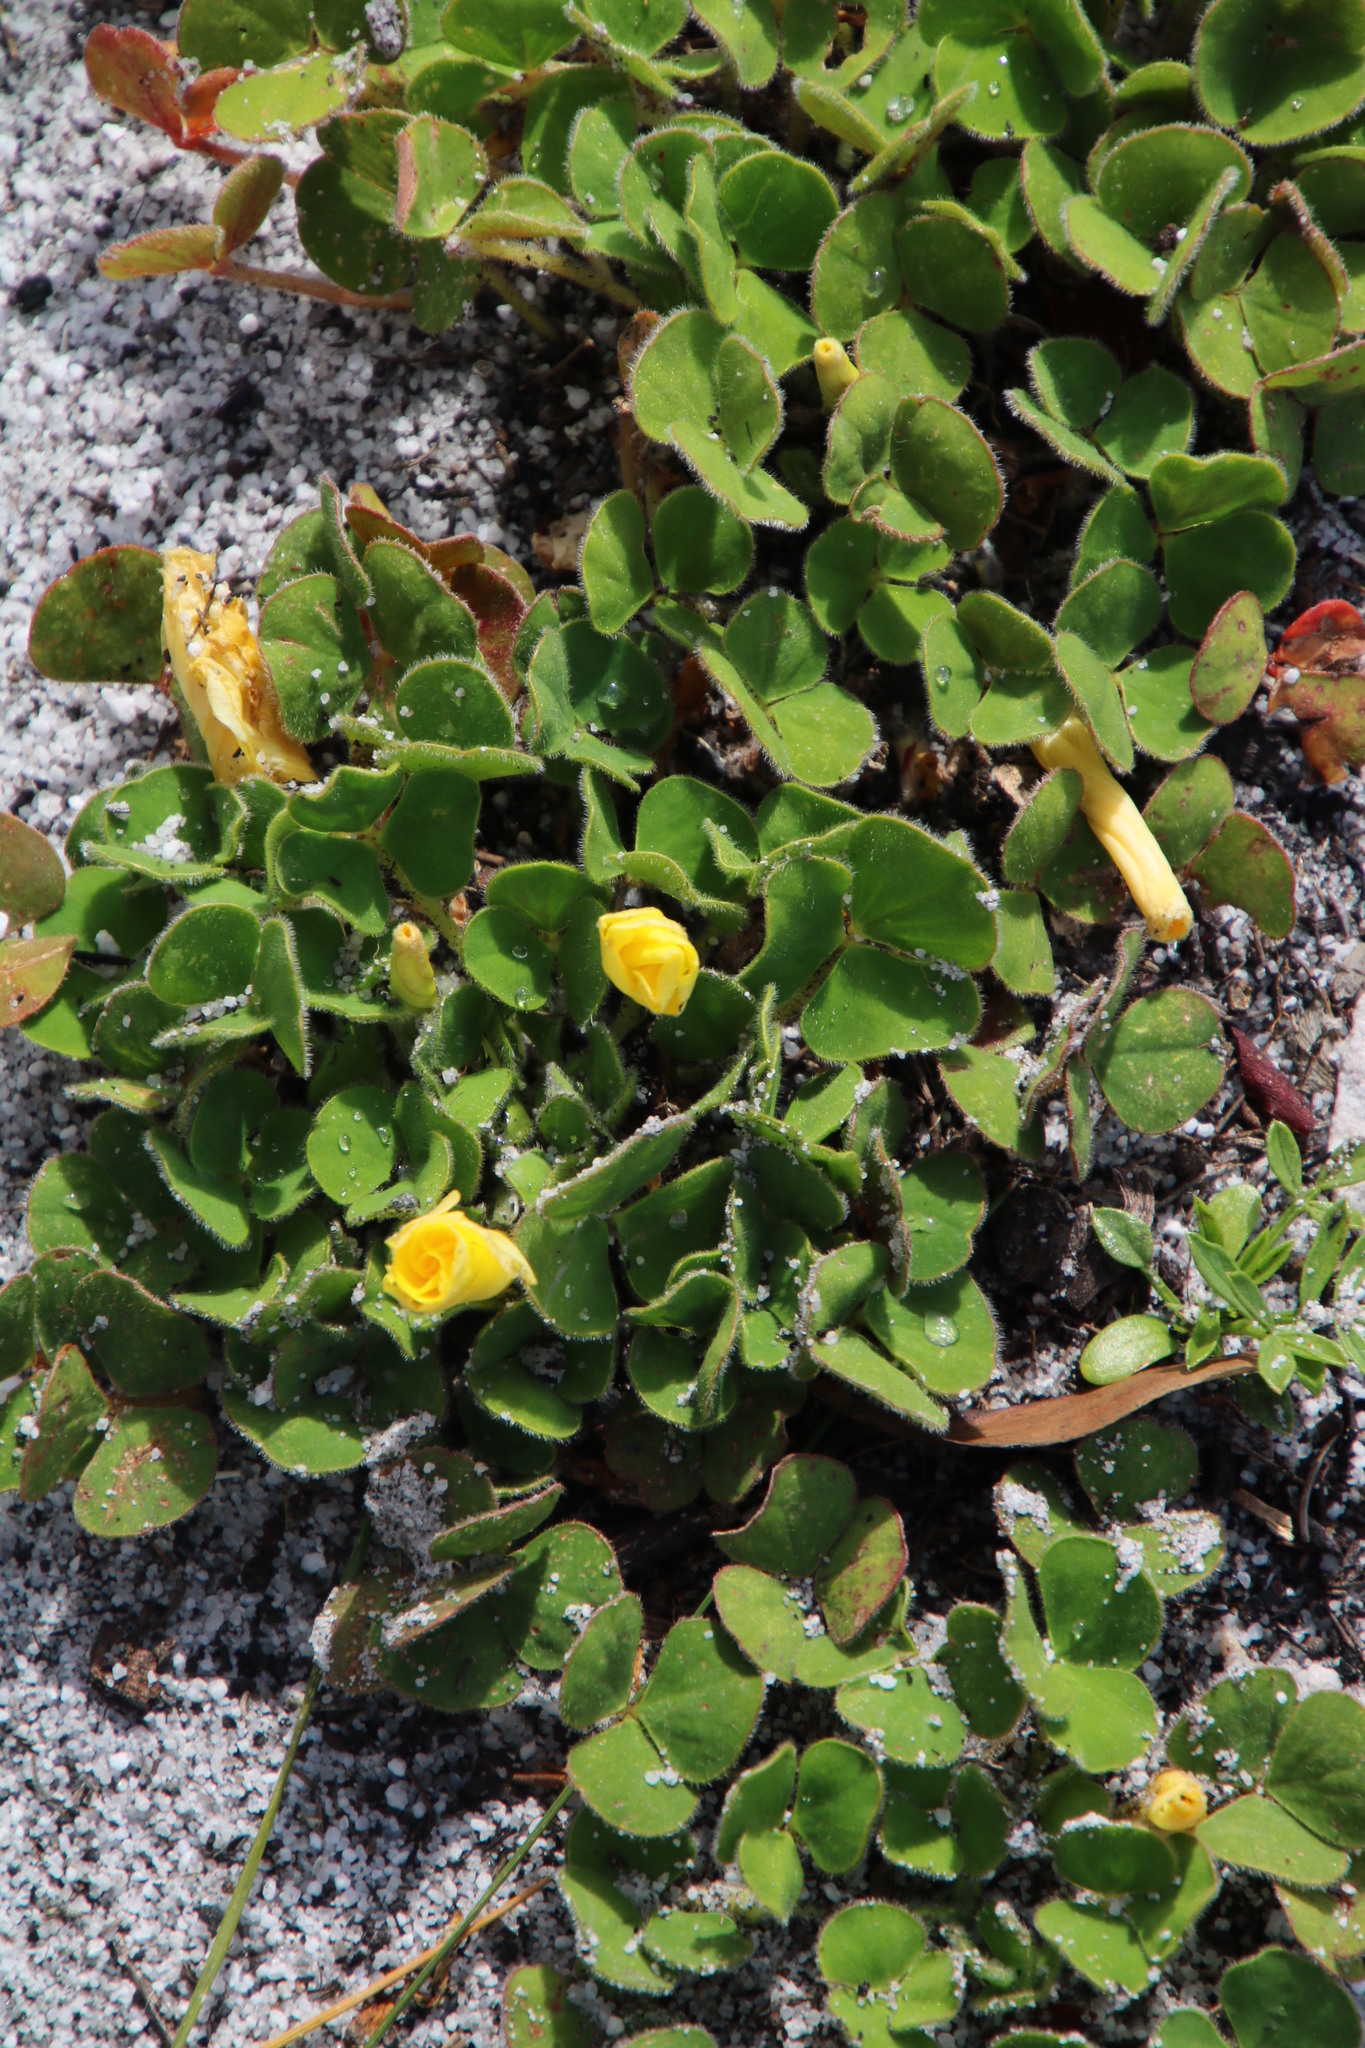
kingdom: Plantae
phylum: Tracheophyta
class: Magnoliopsida
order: Oxalidales
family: Oxalidaceae
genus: Oxalis
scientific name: Oxalis luteola
